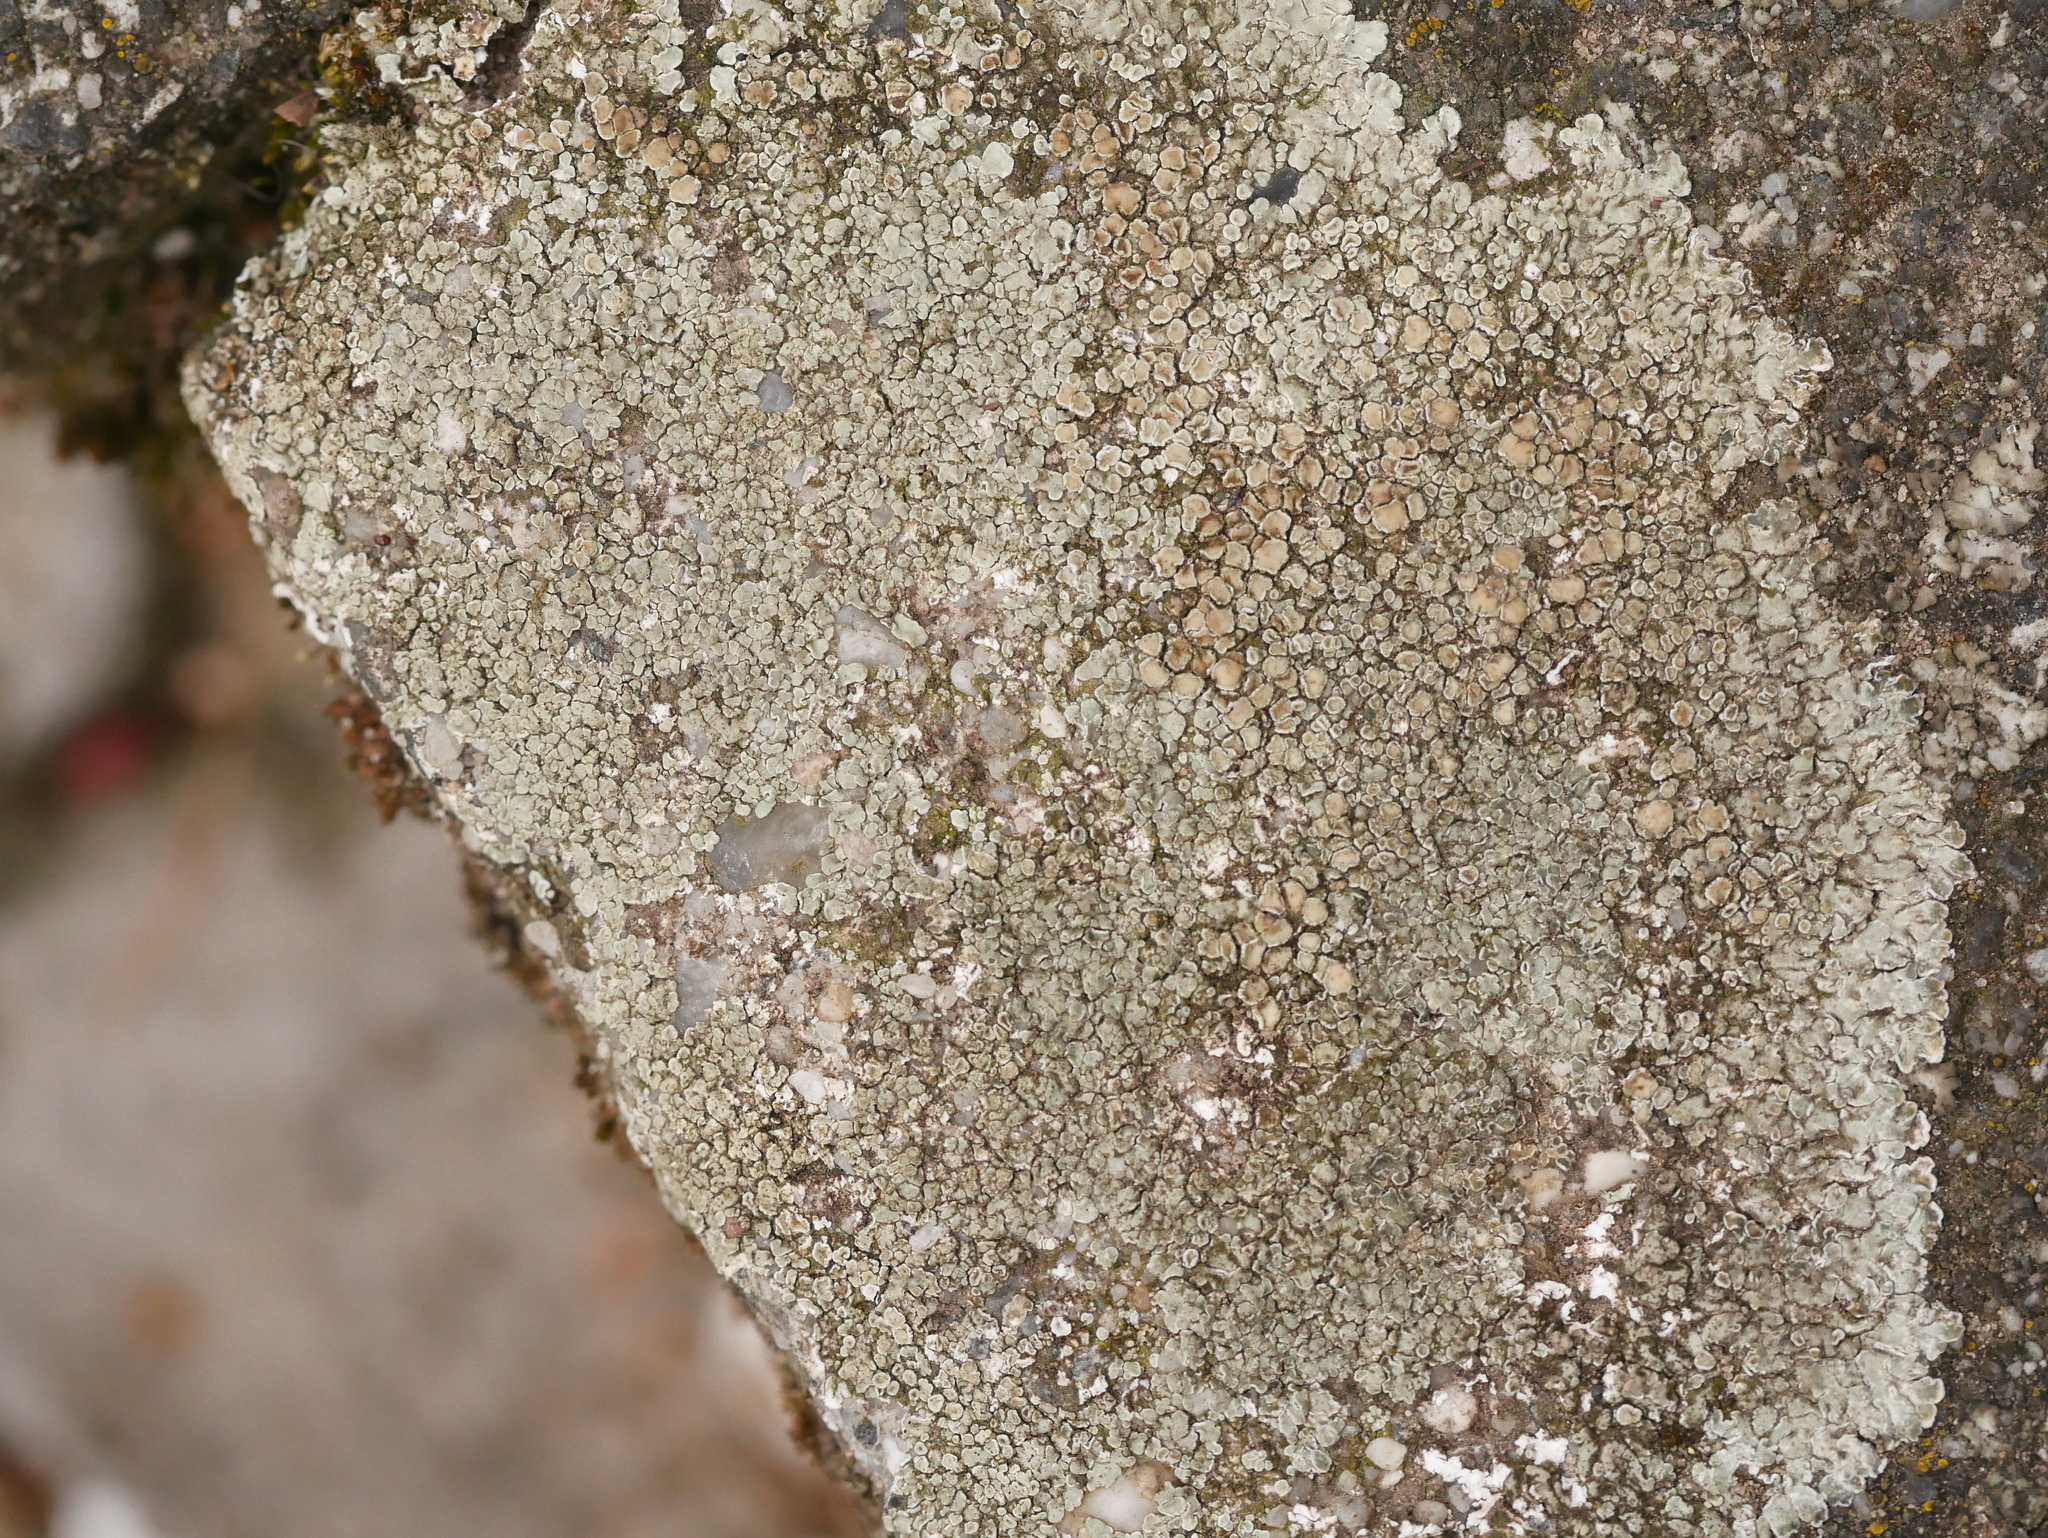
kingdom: Fungi
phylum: Ascomycota
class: Lecanoromycetes
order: Lecanorales
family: Lecanoraceae
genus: Protoparmeliopsis
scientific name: Protoparmeliopsis muralis
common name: Stonewall rim lichen
